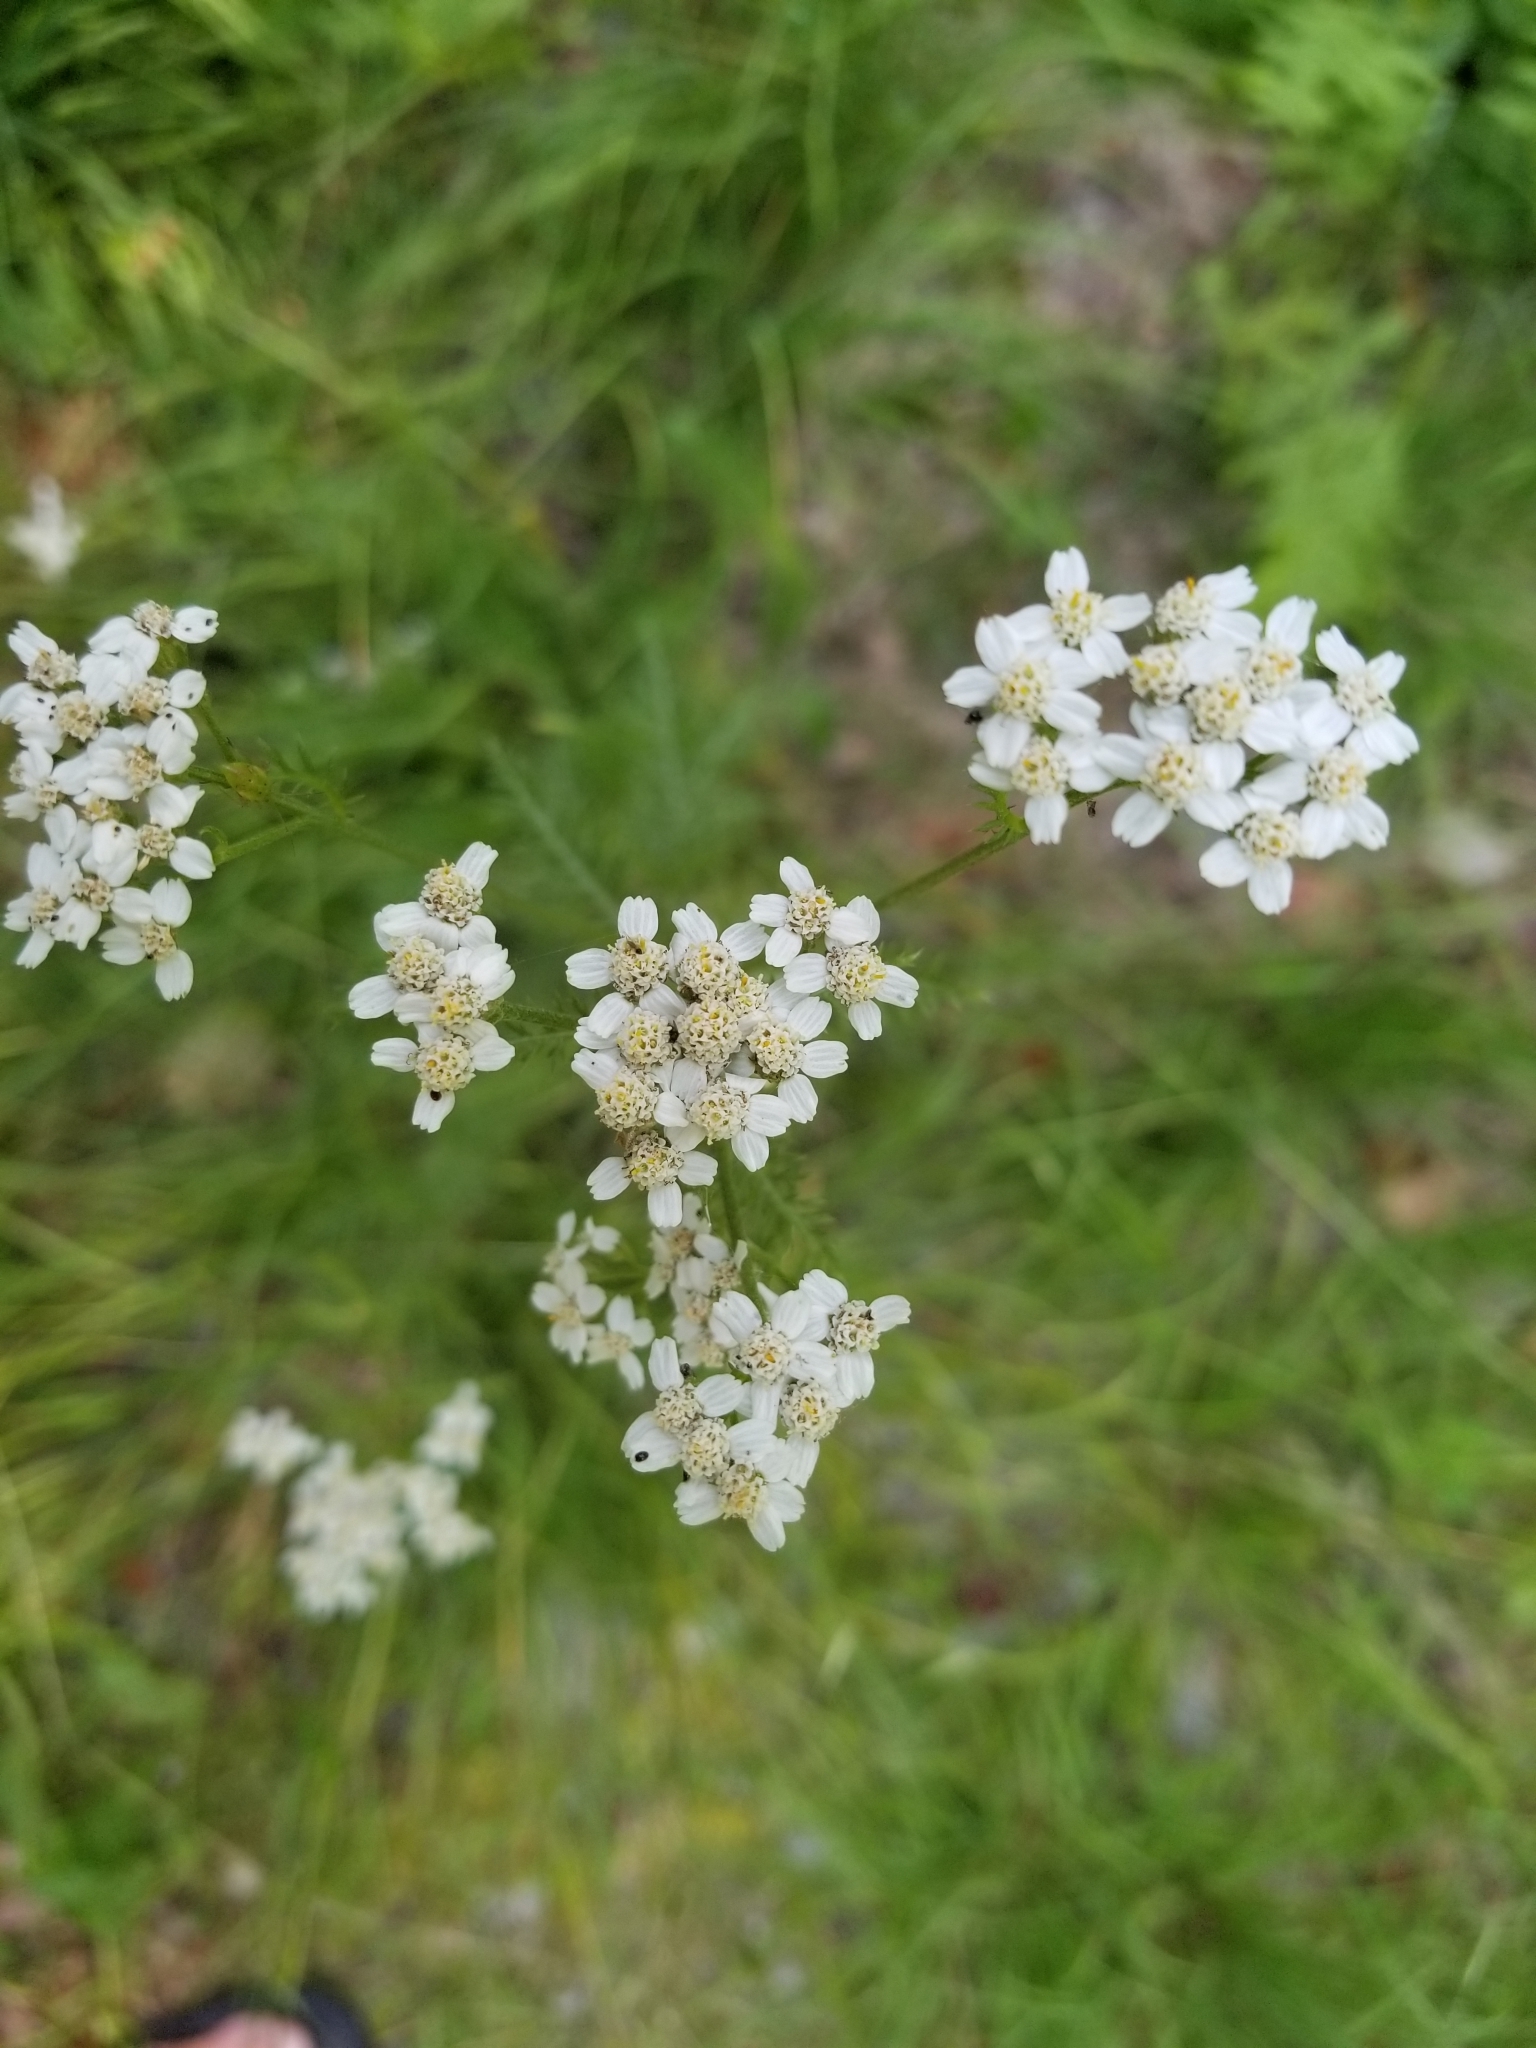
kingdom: Plantae
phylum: Tracheophyta
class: Magnoliopsida
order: Asterales
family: Asteraceae
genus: Achillea
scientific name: Achillea millefolium
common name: Yarrow
